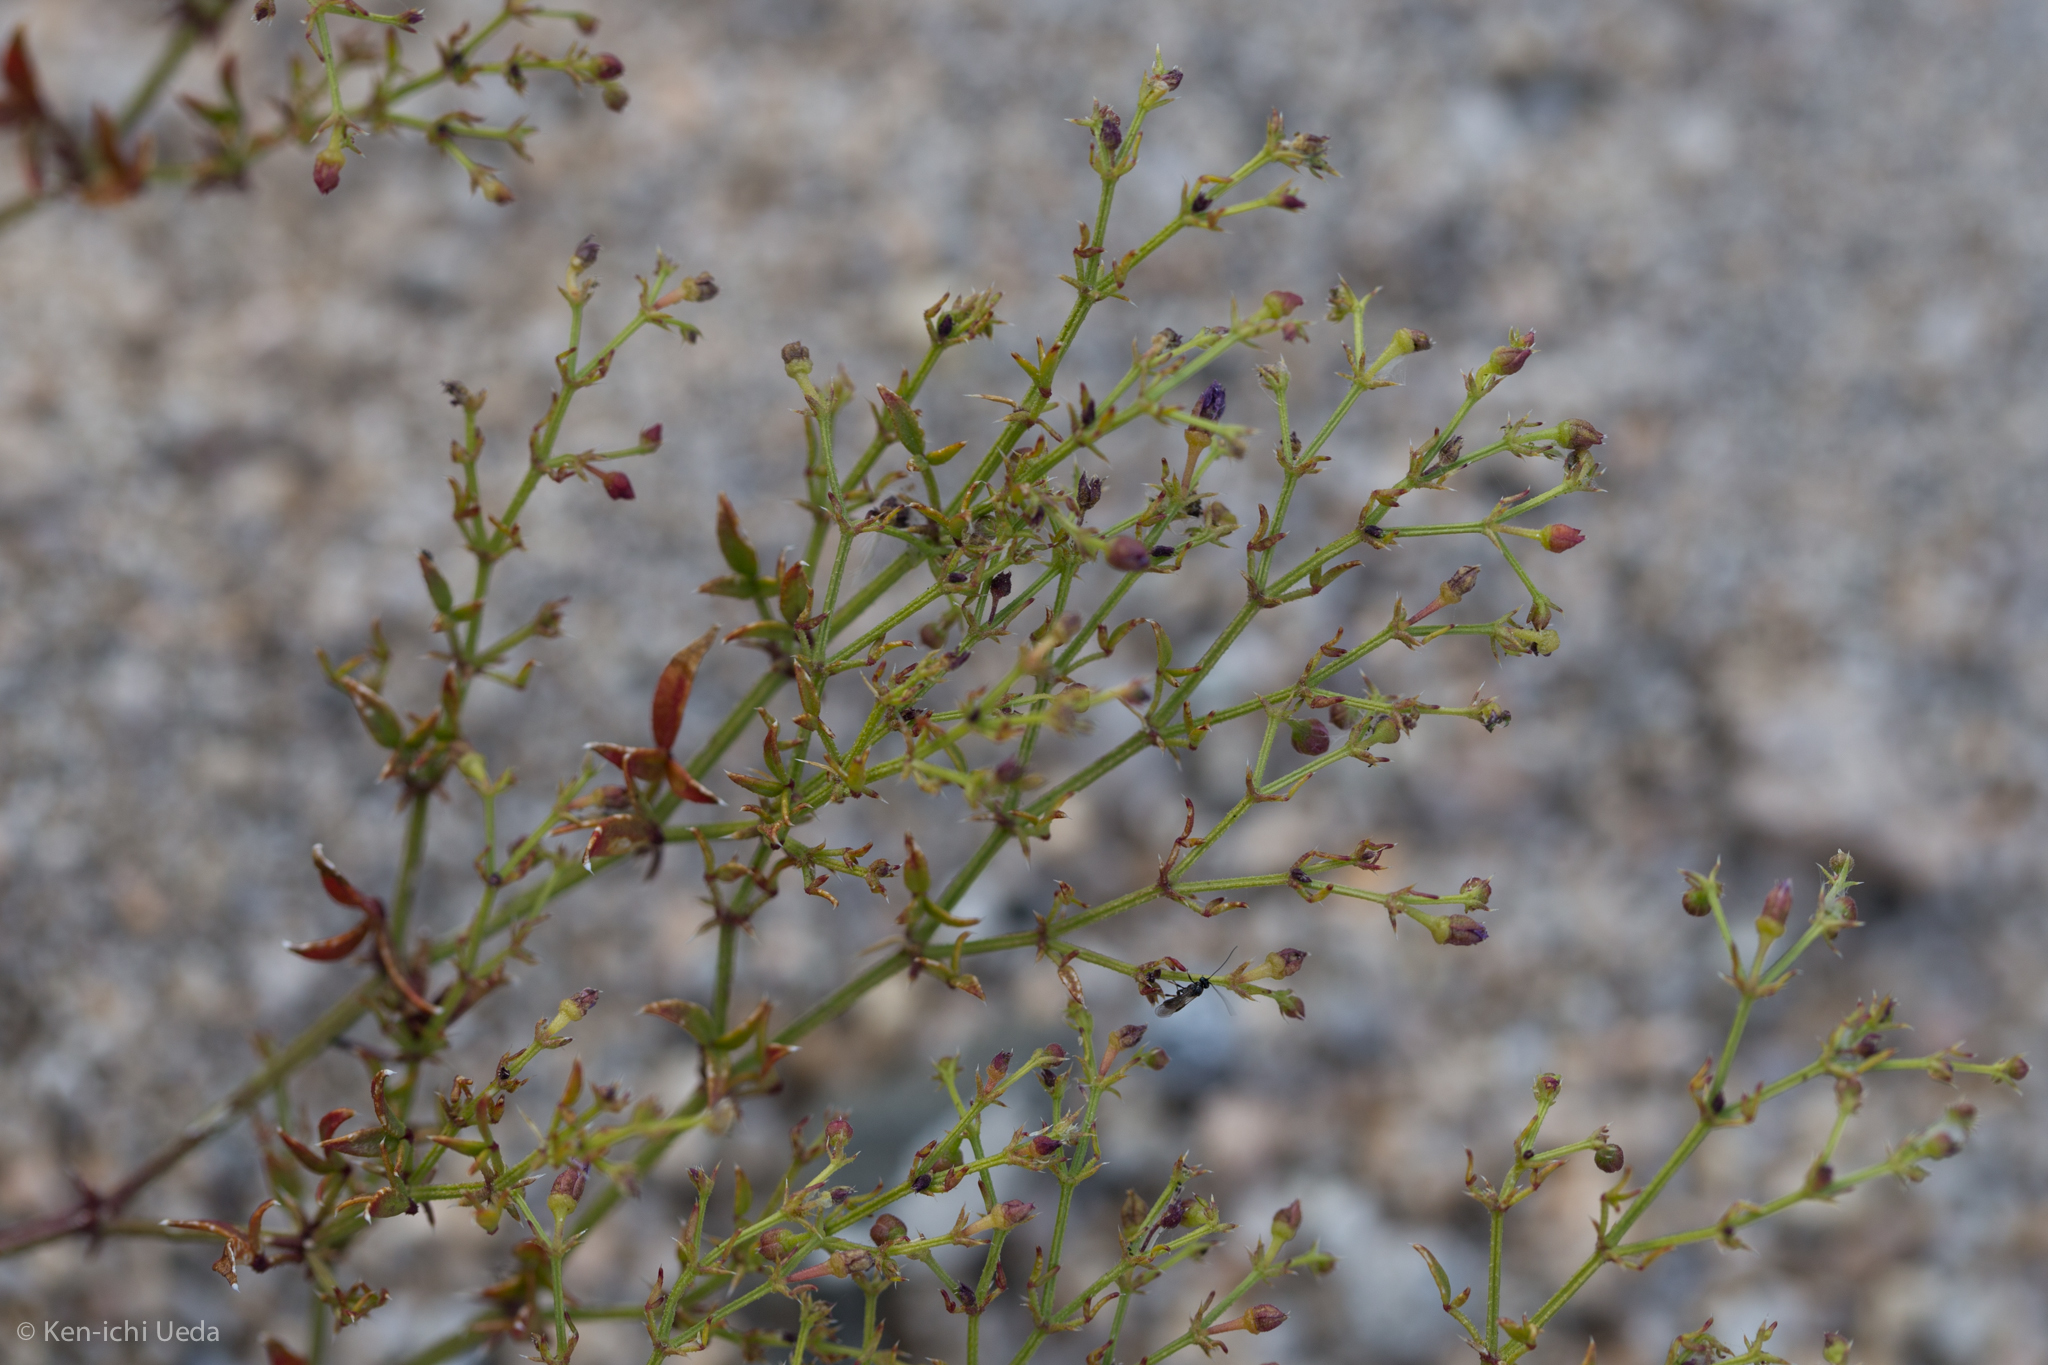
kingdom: Plantae
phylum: Tracheophyta
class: Magnoliopsida
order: Zygophyllales
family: Zygophyllaceae
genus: Fagonia
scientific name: Fagonia laevis
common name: California fagonbush
